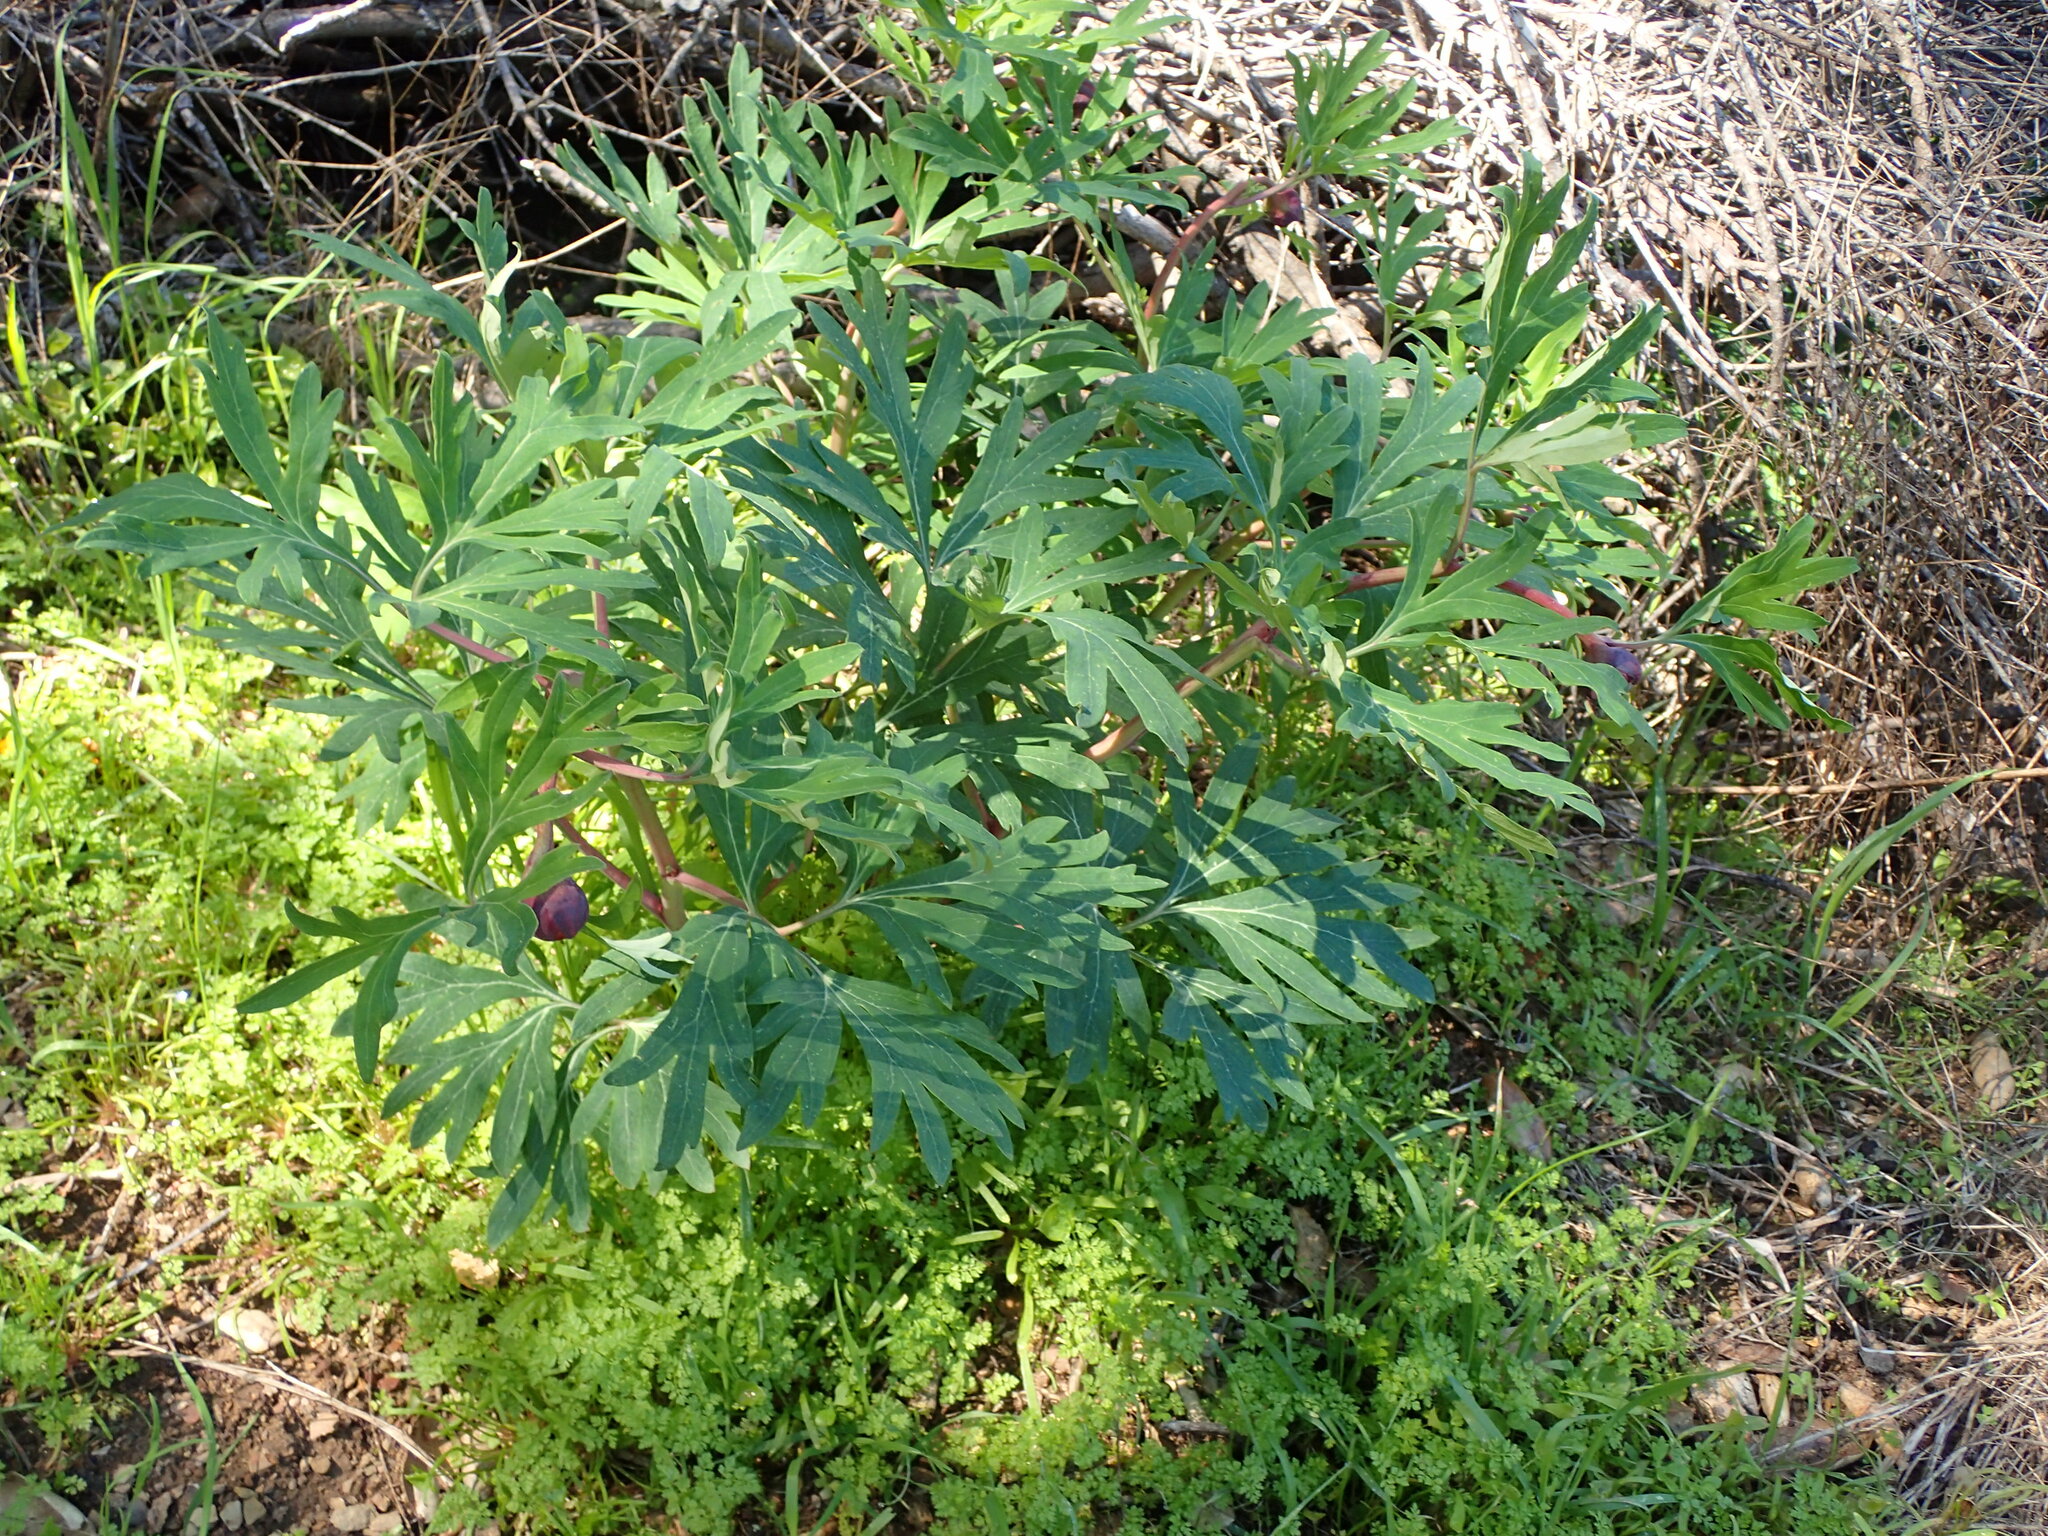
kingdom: Plantae
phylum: Tracheophyta
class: Magnoliopsida
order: Saxifragales
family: Paeoniaceae
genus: Paeonia
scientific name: Paeonia californica
